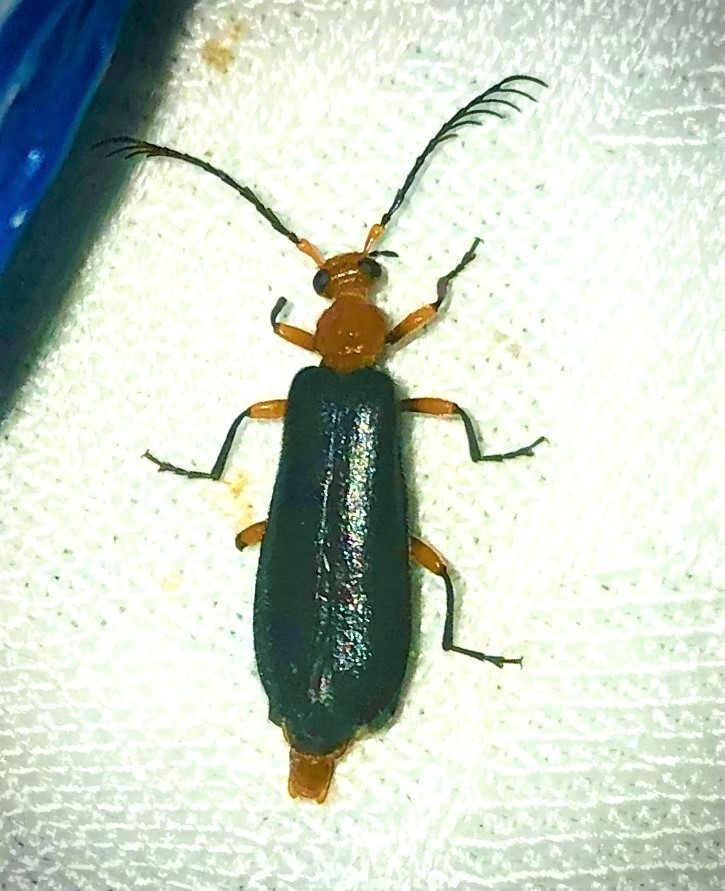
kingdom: Animalia
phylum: Arthropoda
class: Insecta
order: Coleoptera
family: Pyrochroidae
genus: Neopyrochroa
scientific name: Neopyrochroa femoralis
